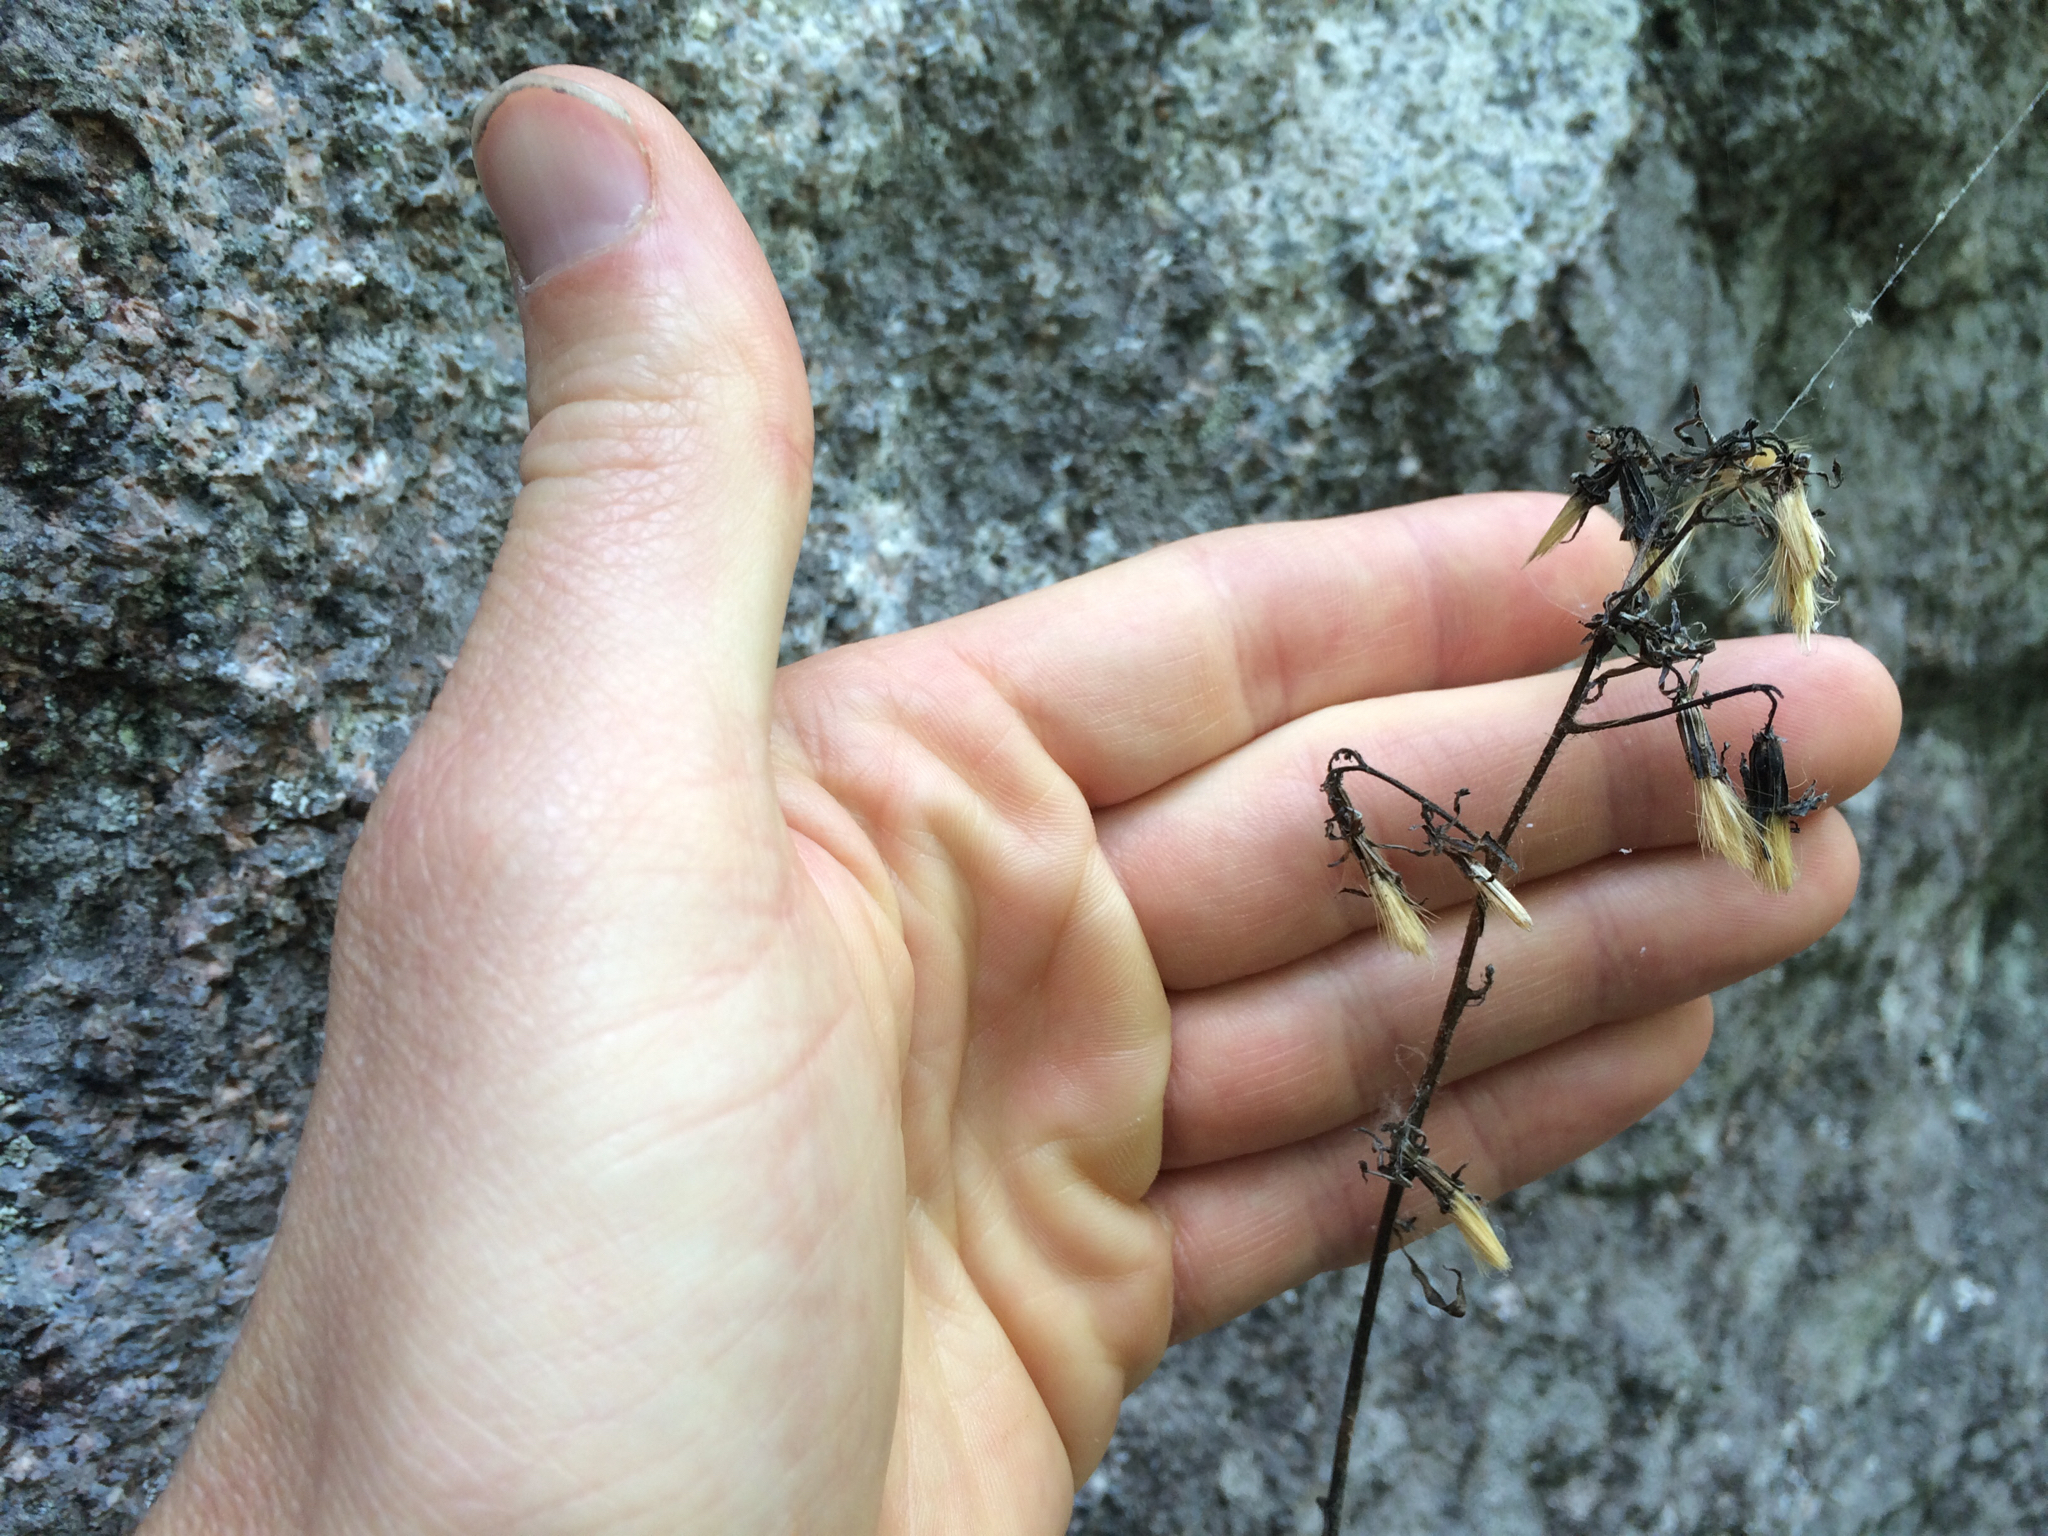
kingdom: Plantae
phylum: Tracheophyta
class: Magnoliopsida
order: Asterales
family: Asteraceae
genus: Nabalus
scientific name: Nabalus trifoliolatus
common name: Gall-of-the-earth
